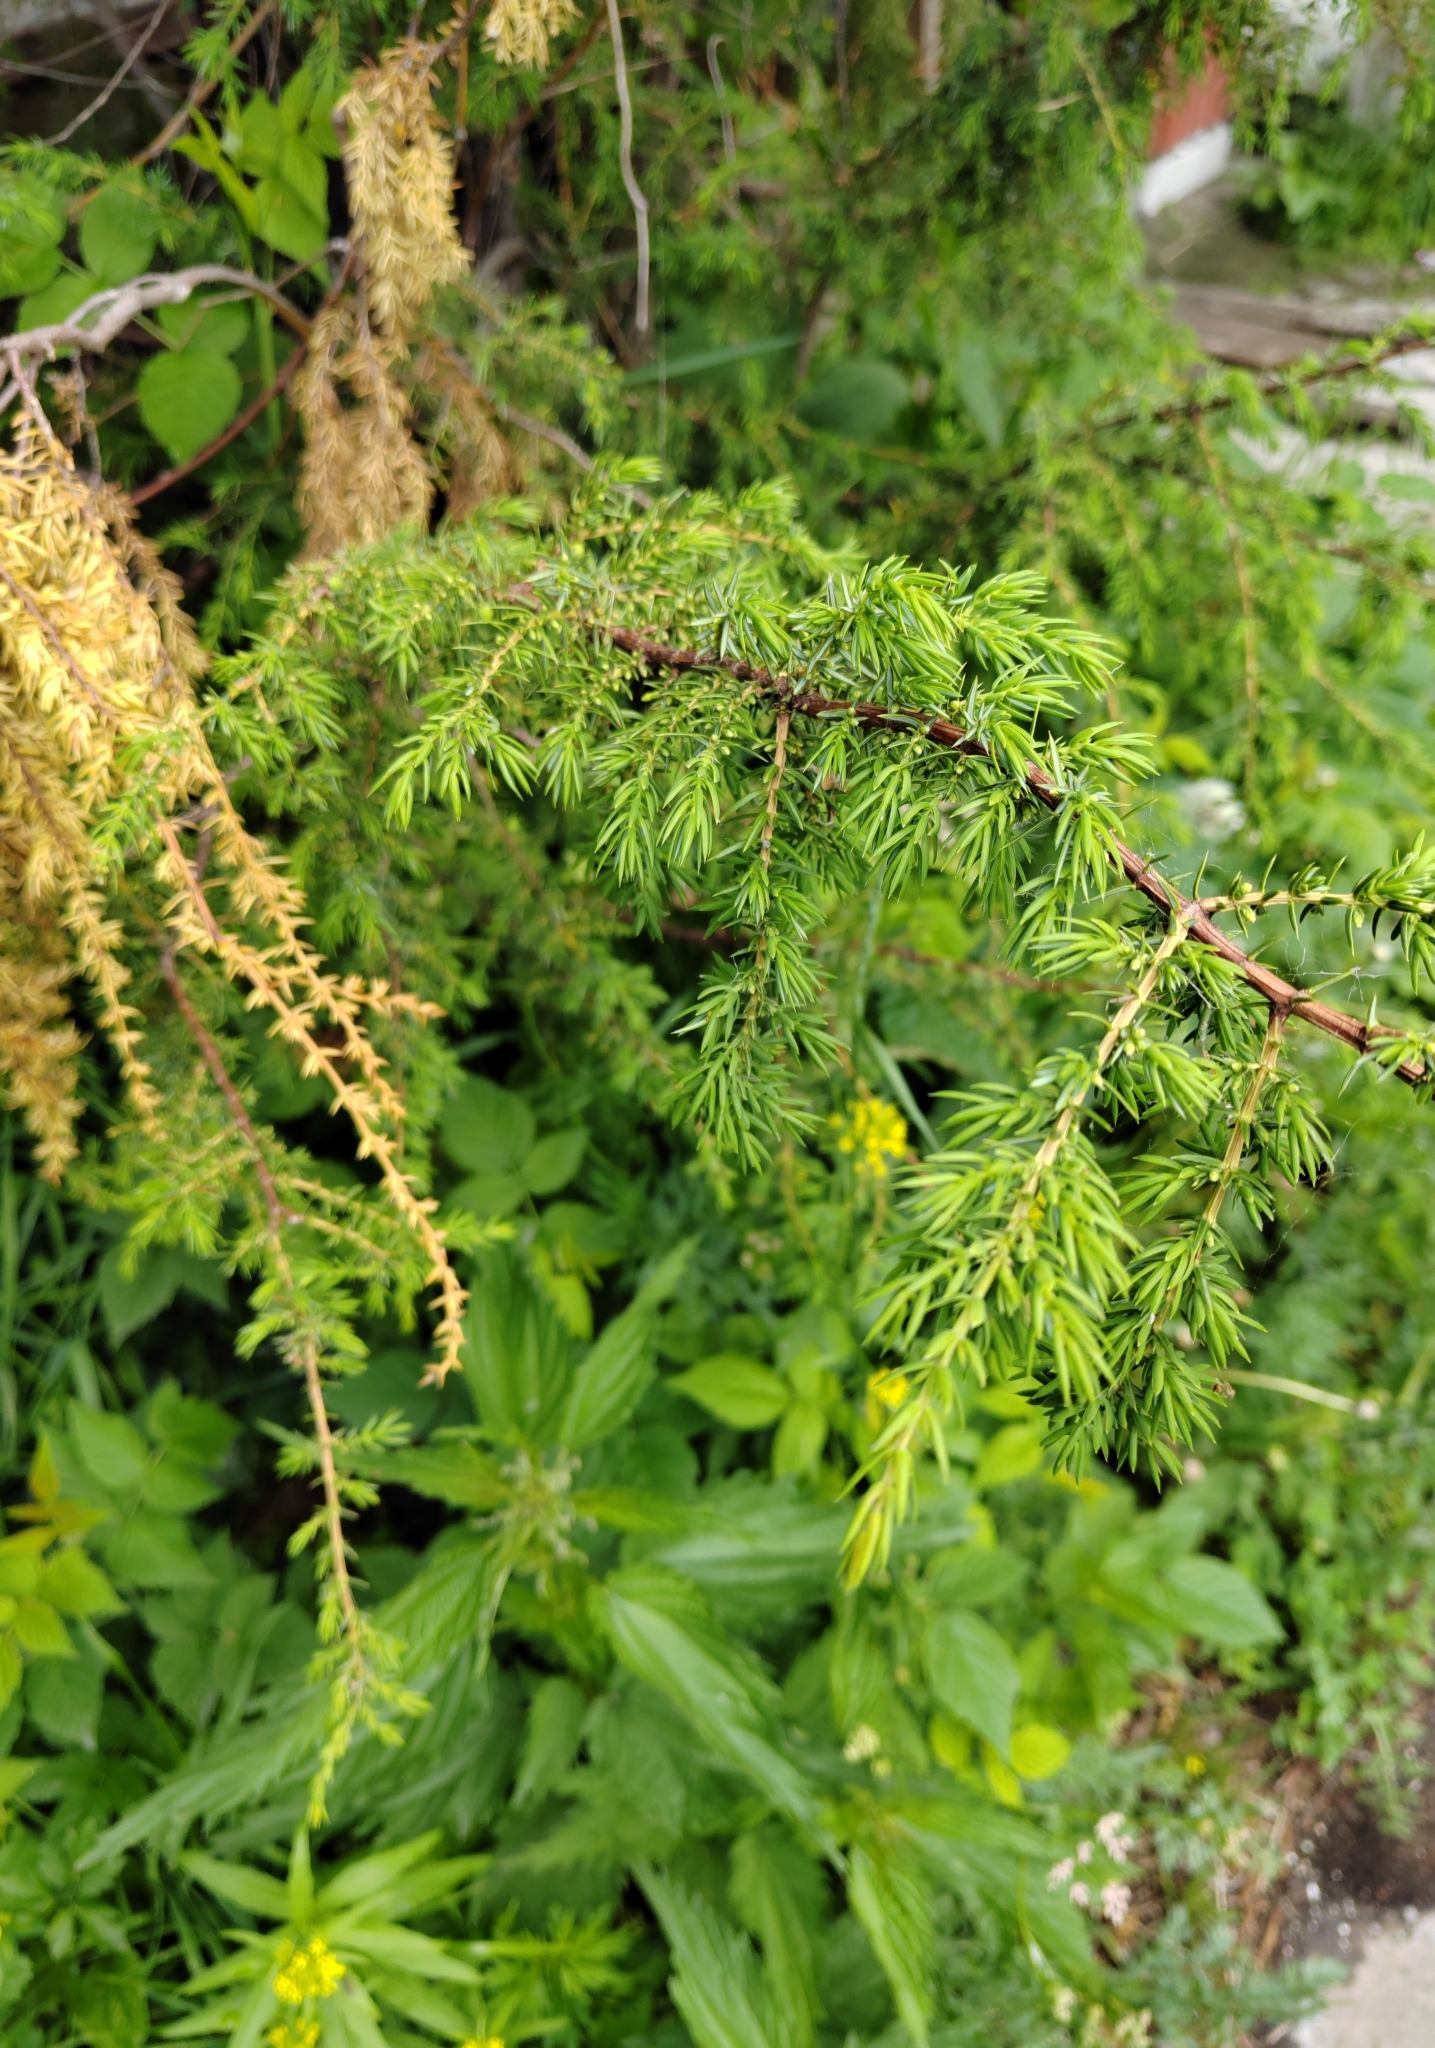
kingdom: Plantae
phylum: Tracheophyta
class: Pinopsida
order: Pinales
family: Cupressaceae
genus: Juniperus
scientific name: Juniperus communis
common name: Common juniper
